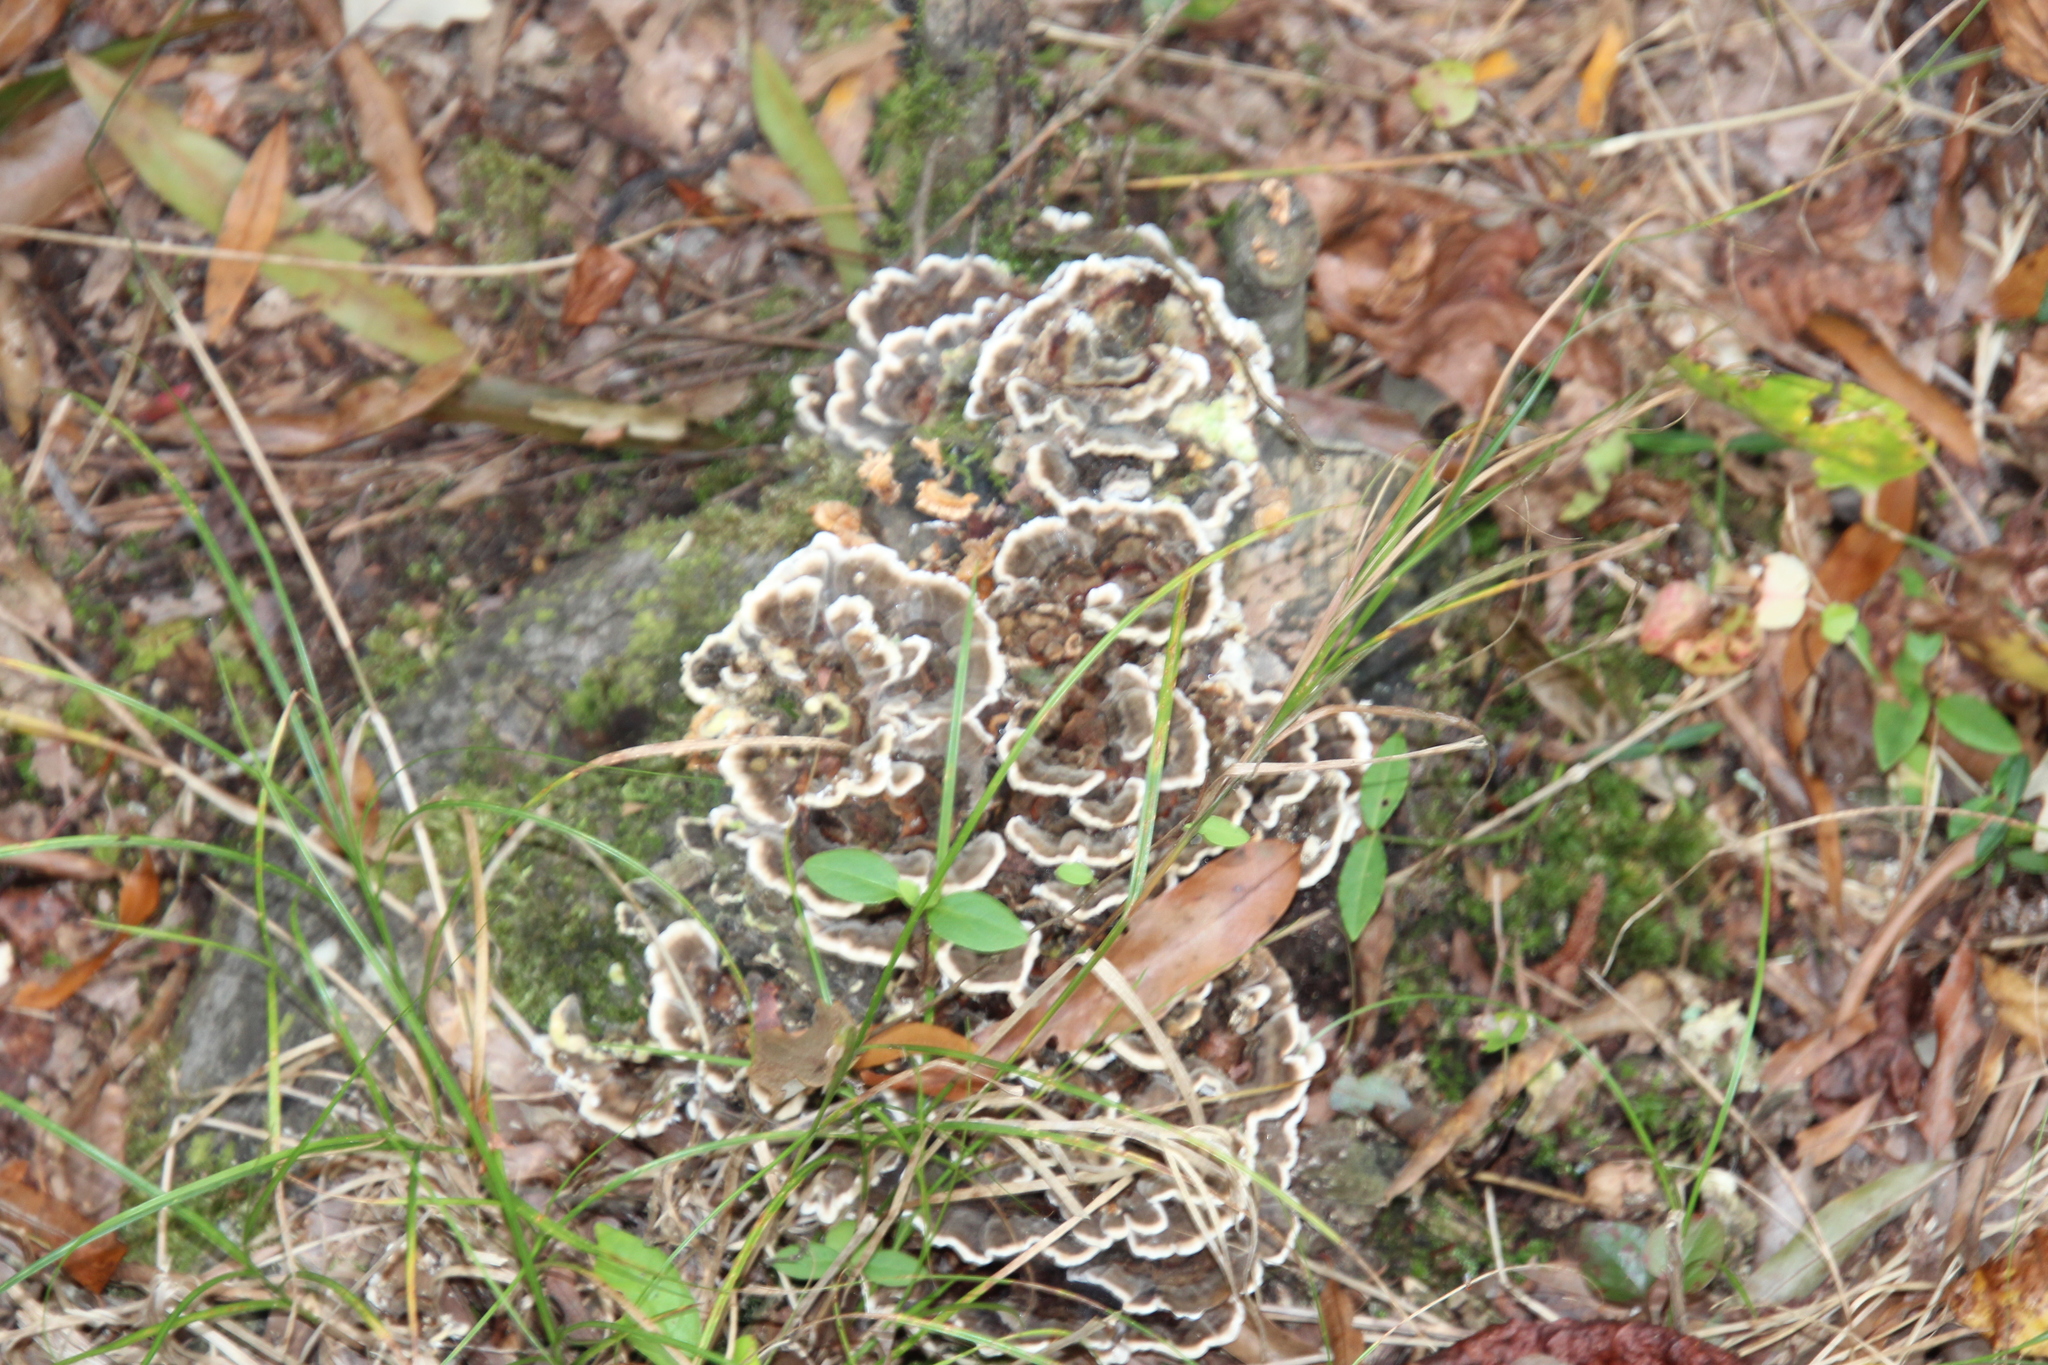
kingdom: Fungi
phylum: Basidiomycota
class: Agaricomycetes
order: Polyporales
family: Polyporaceae
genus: Trametes
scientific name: Trametes versicolor
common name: Turkeytail
